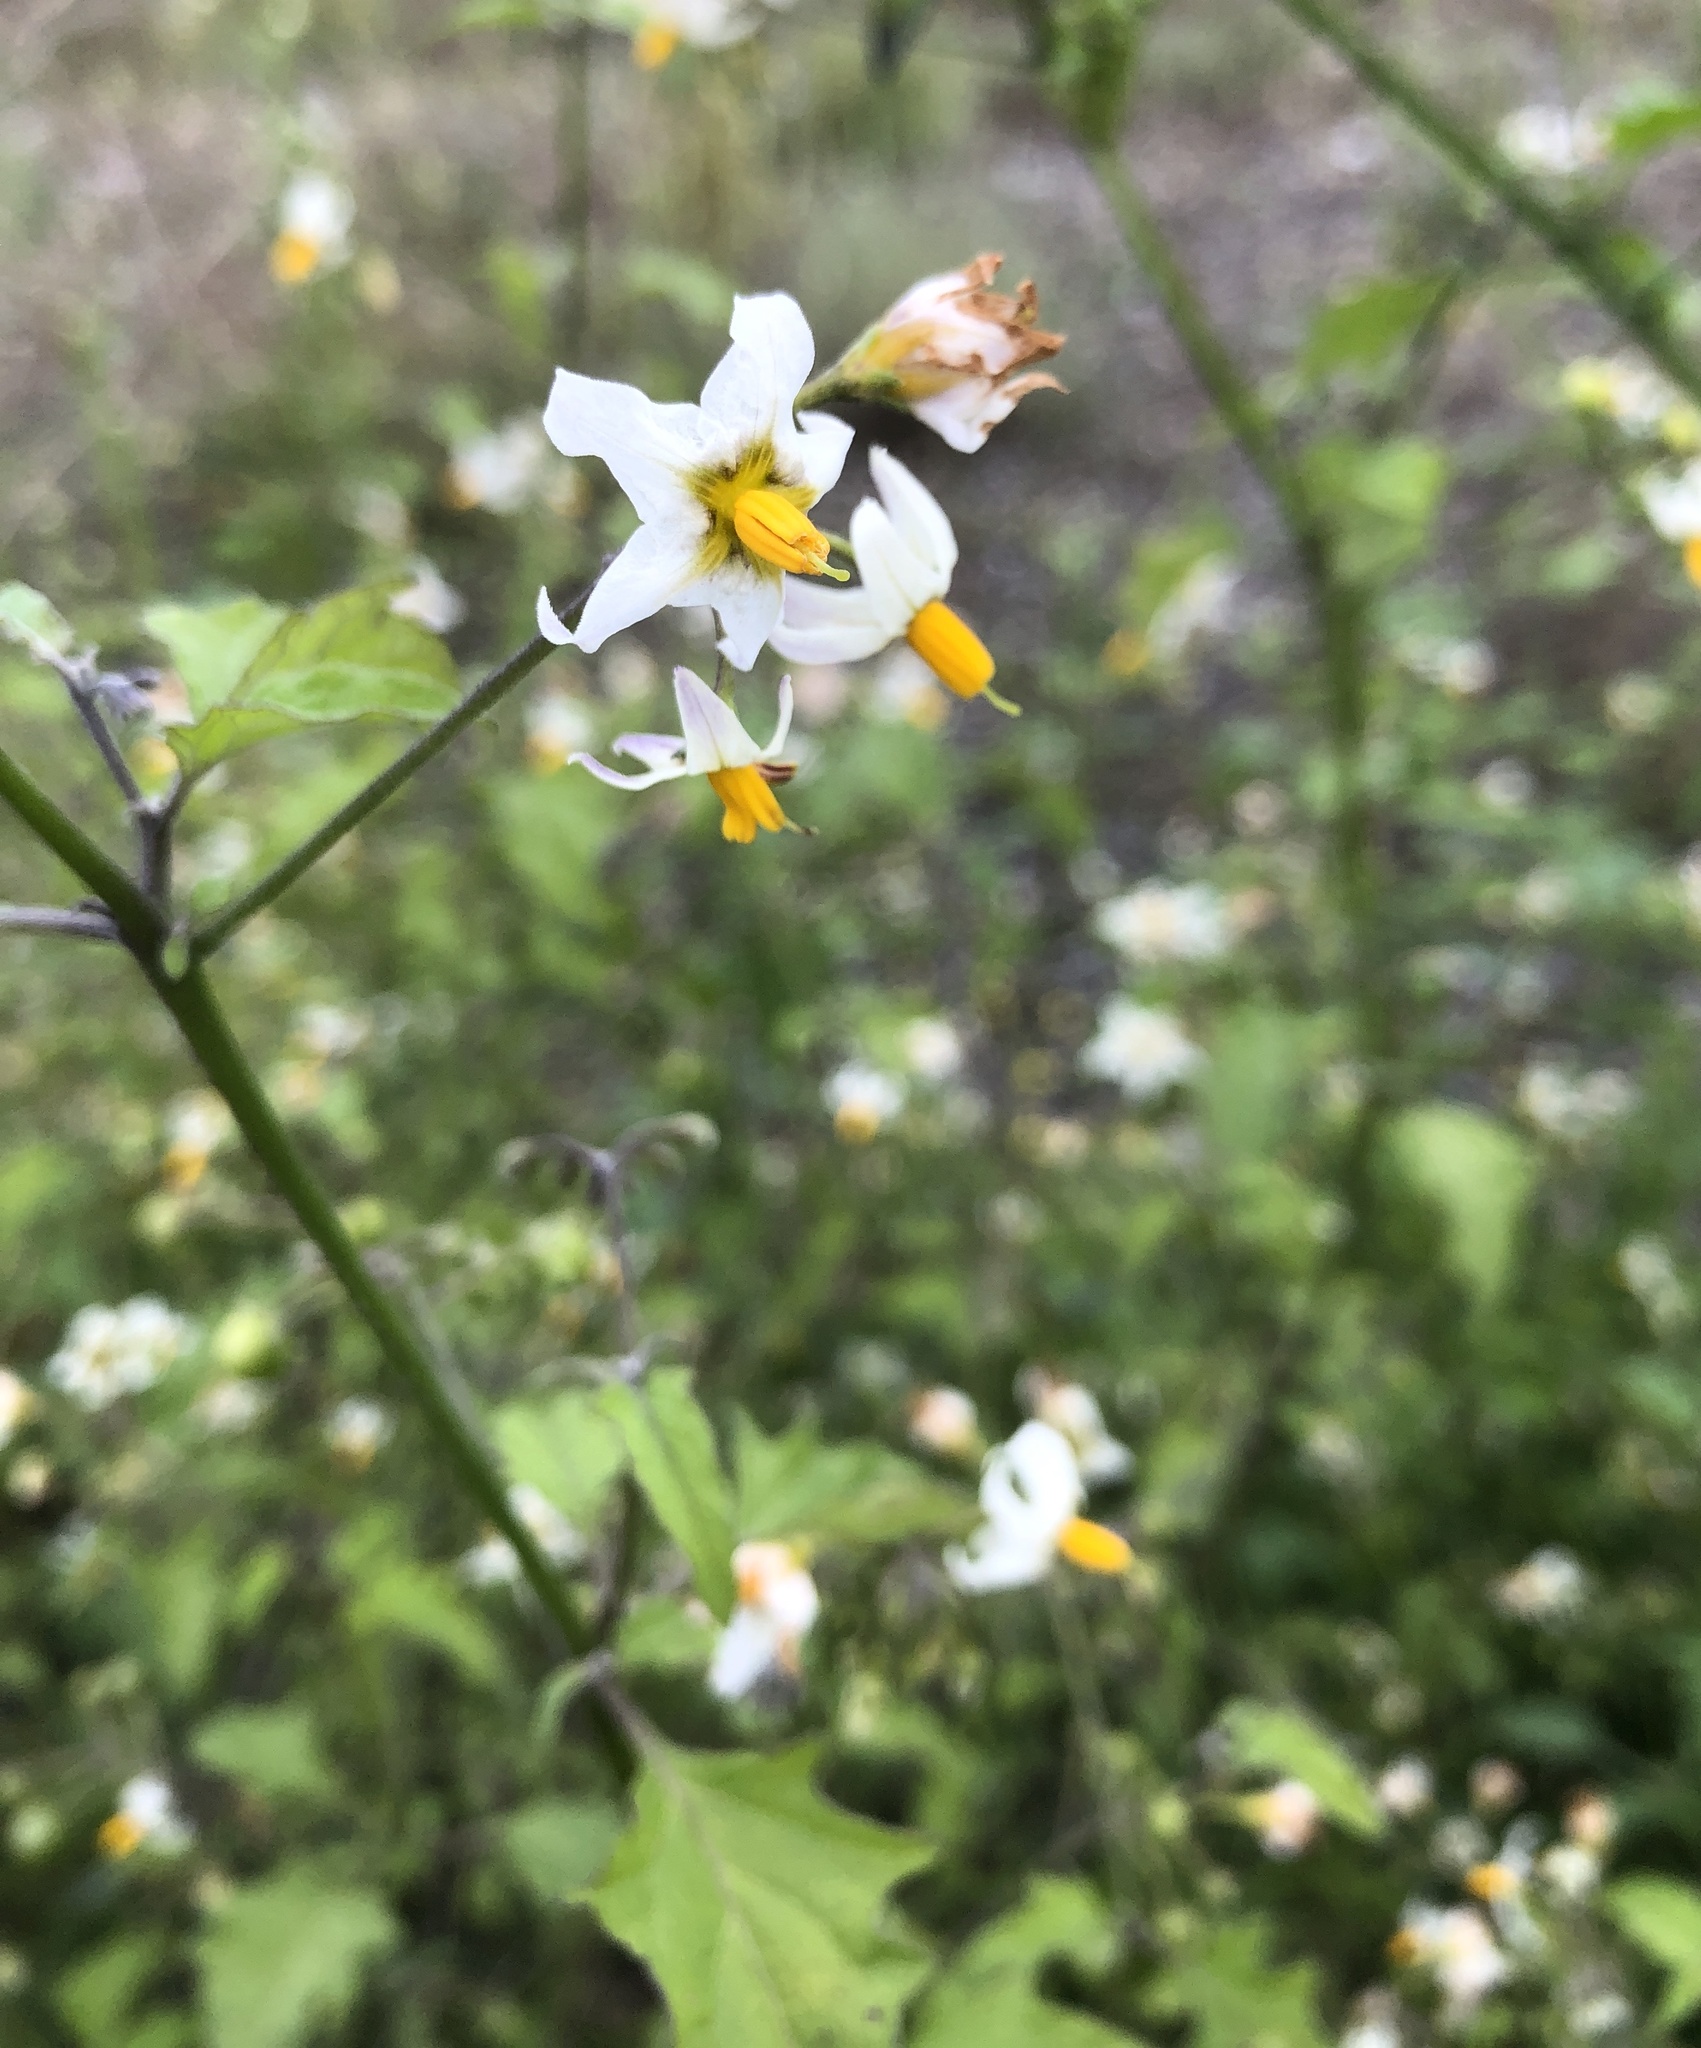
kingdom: Plantae
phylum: Tracheophyta
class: Magnoliopsida
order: Solanales
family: Solanaceae
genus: Solanum
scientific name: Solanum douglasii
